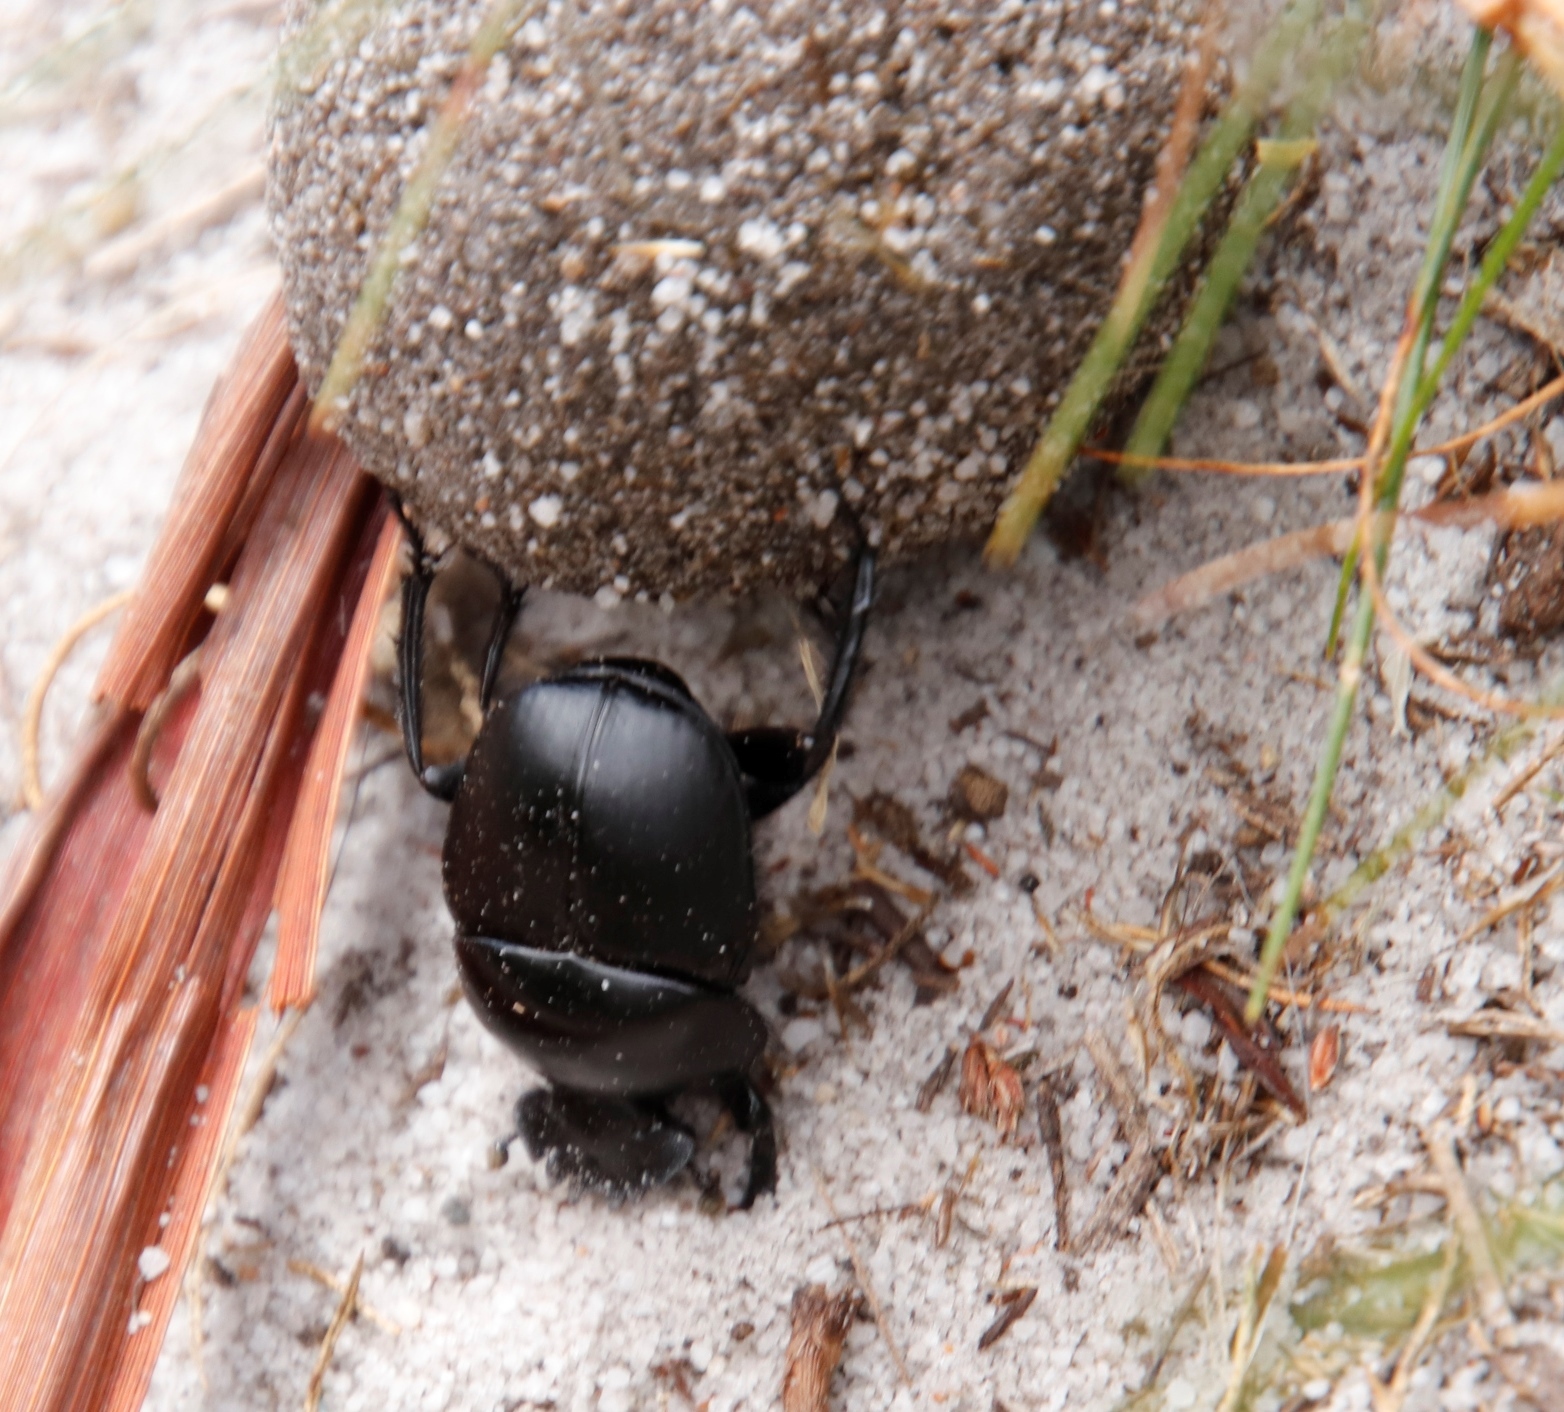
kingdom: Animalia
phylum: Arthropoda
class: Insecta
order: Coleoptera
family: Scarabaeidae
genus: Scarabaeus
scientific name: Scarabaeus convexus
